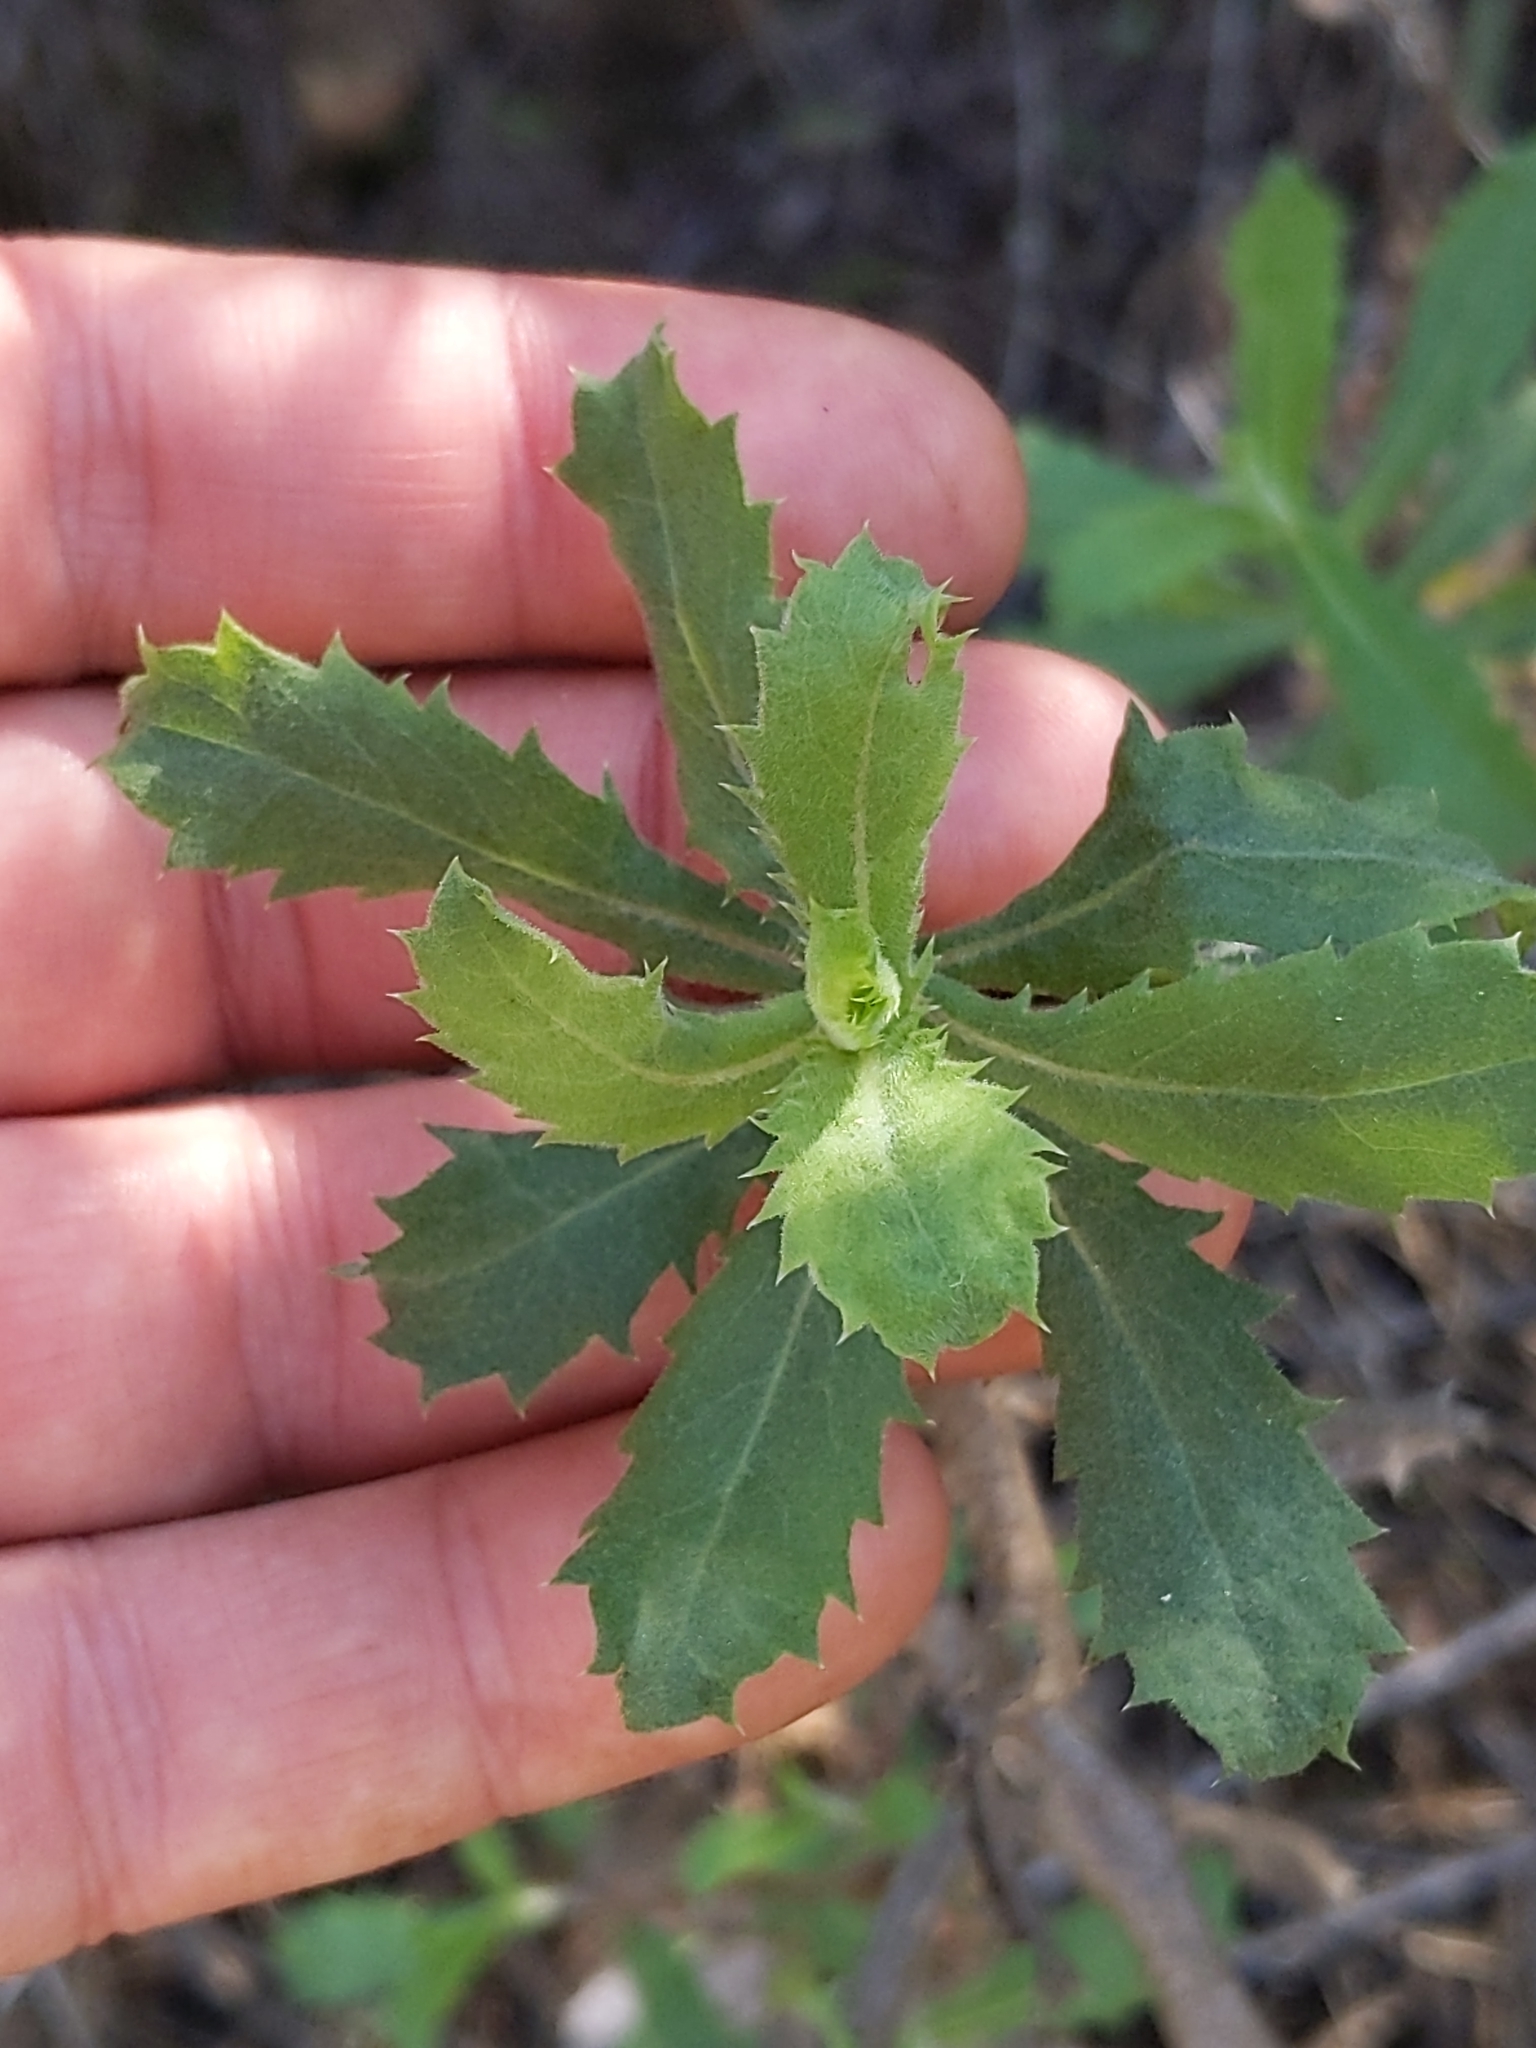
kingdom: Plantae
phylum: Tracheophyta
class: Magnoliopsida
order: Asterales
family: Asteraceae
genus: Hazardia
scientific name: Hazardia squarrosa
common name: Saw-tooth goldenbush
